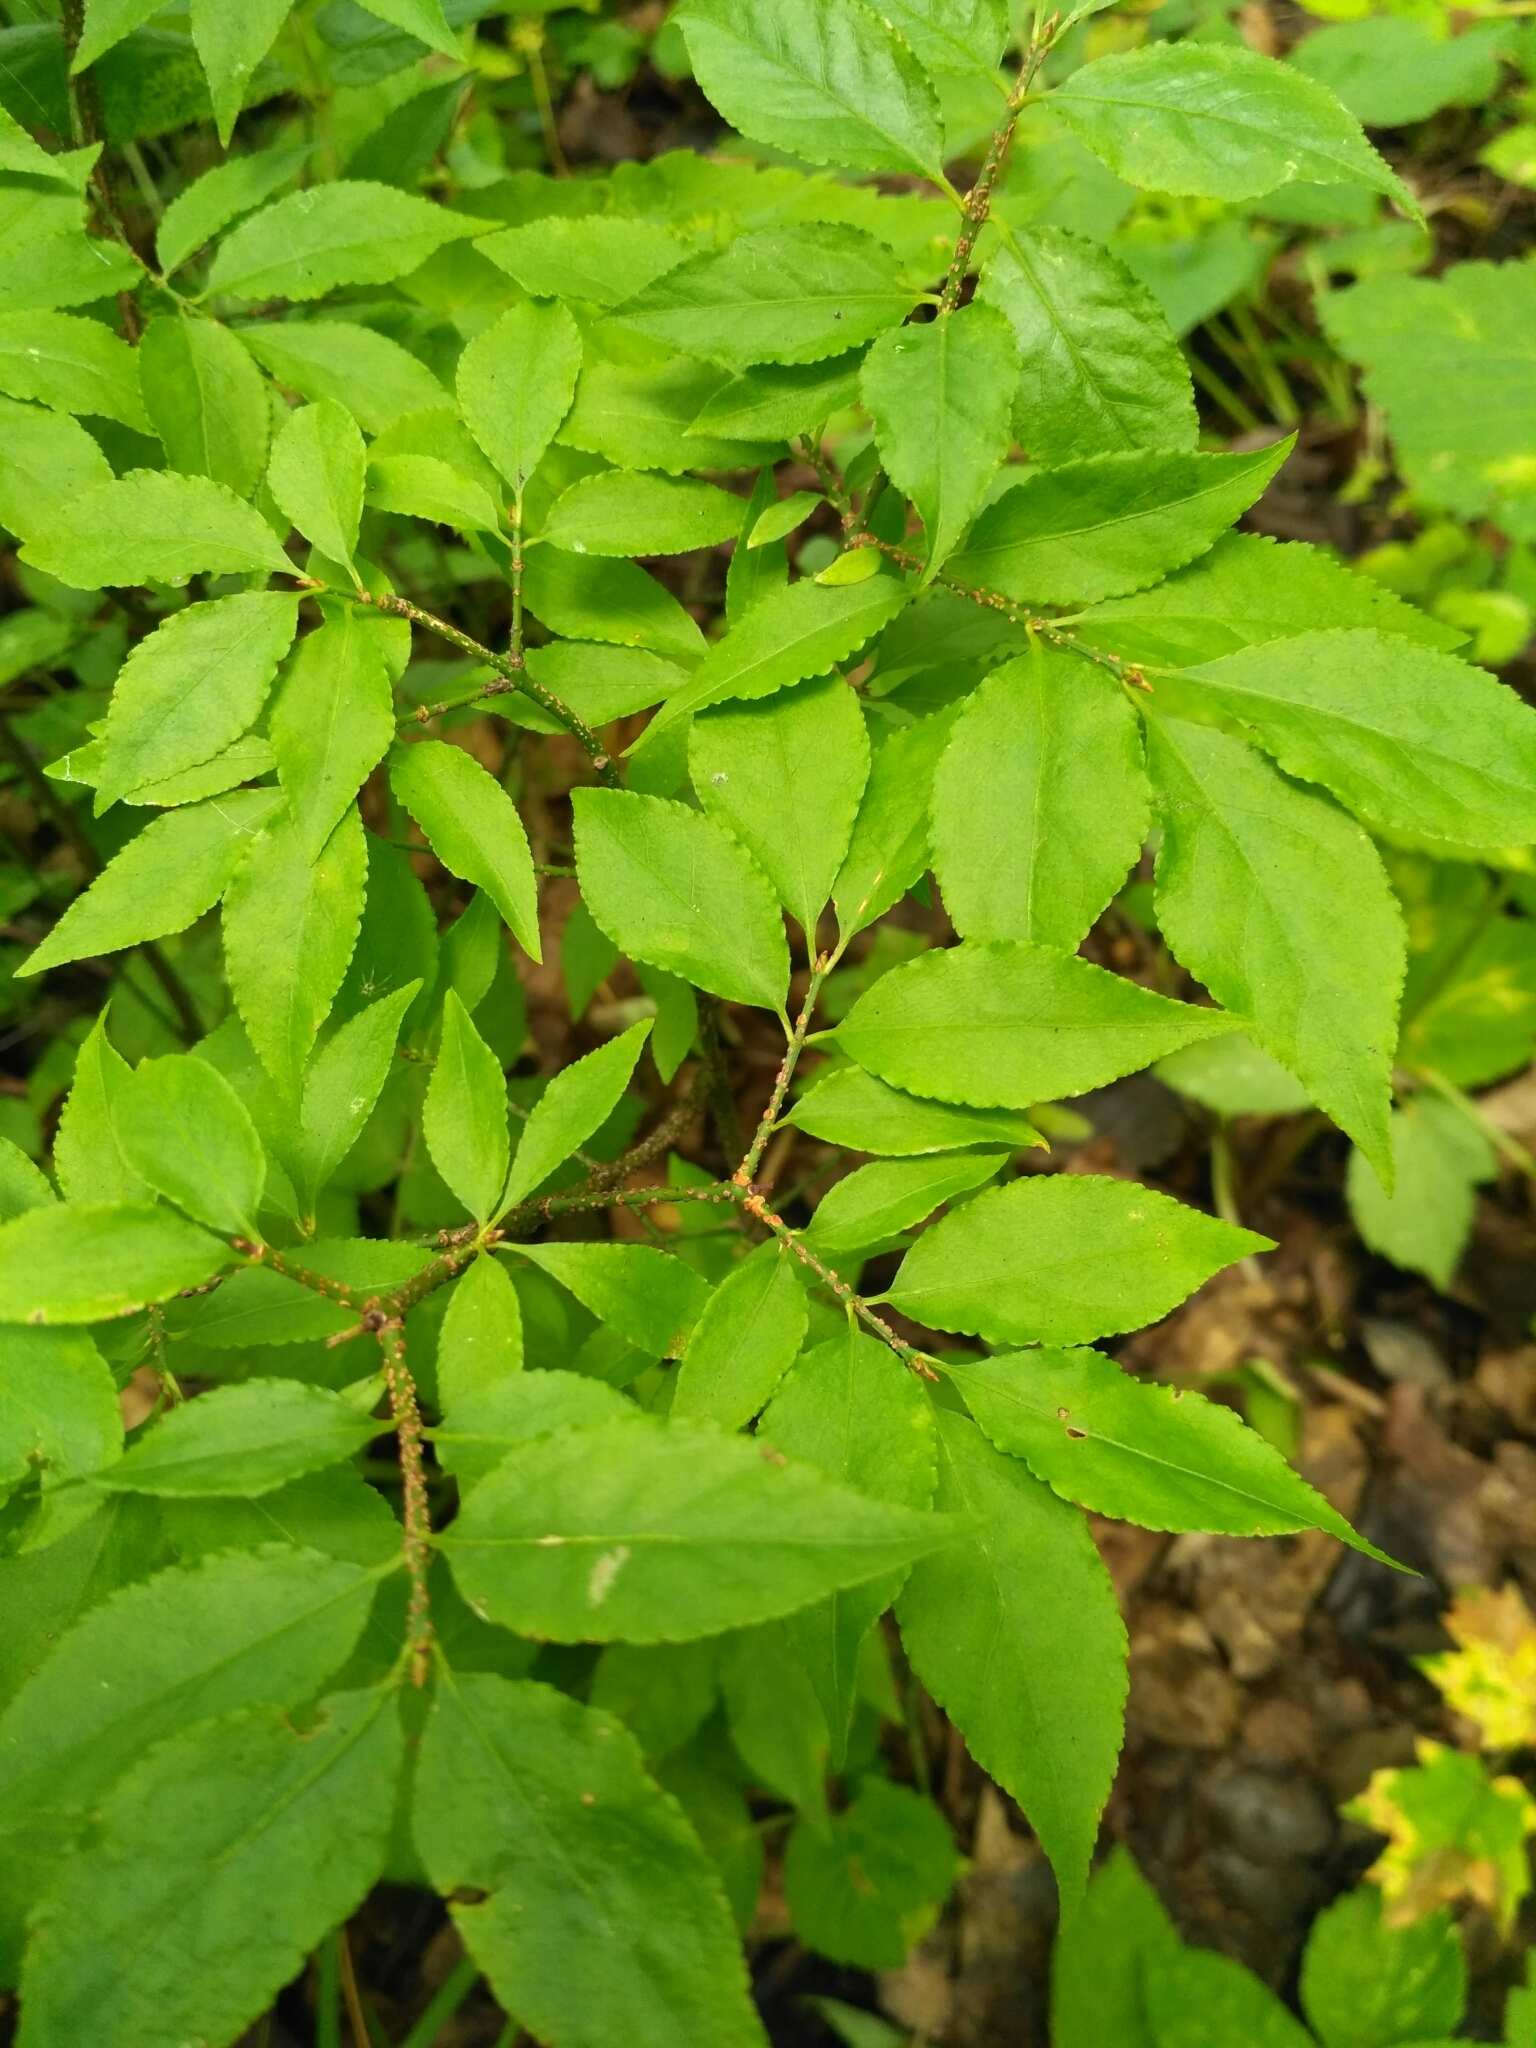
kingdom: Plantae
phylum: Tracheophyta
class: Magnoliopsida
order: Celastrales
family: Celastraceae
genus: Euonymus
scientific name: Euonymus verrucosus
